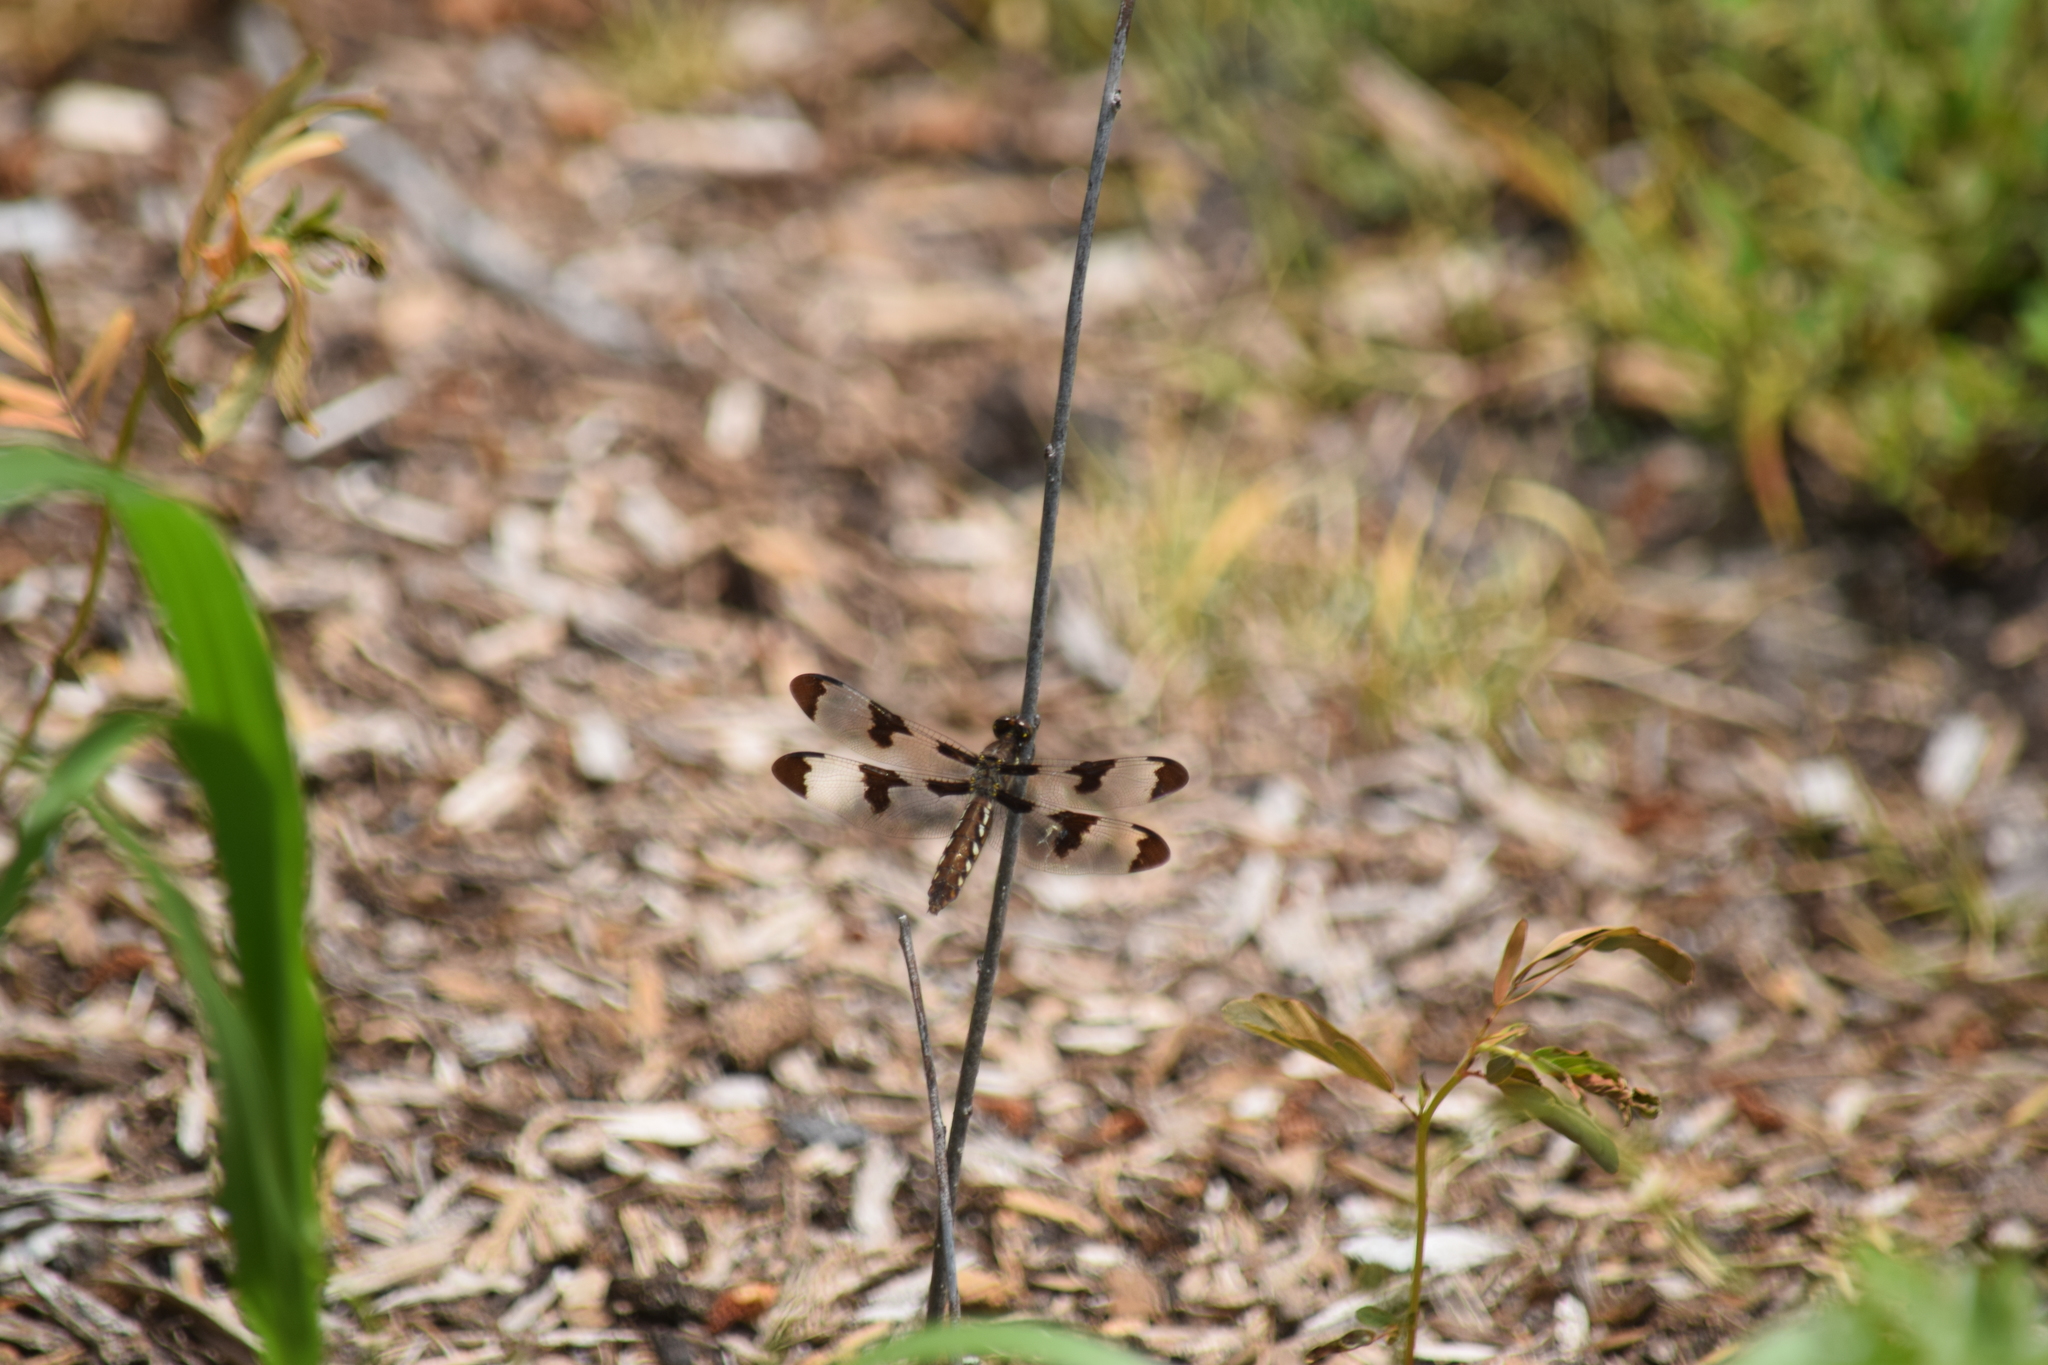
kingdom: Animalia
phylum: Arthropoda
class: Insecta
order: Odonata
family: Libellulidae
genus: Plathemis
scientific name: Plathemis lydia
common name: Common whitetail
